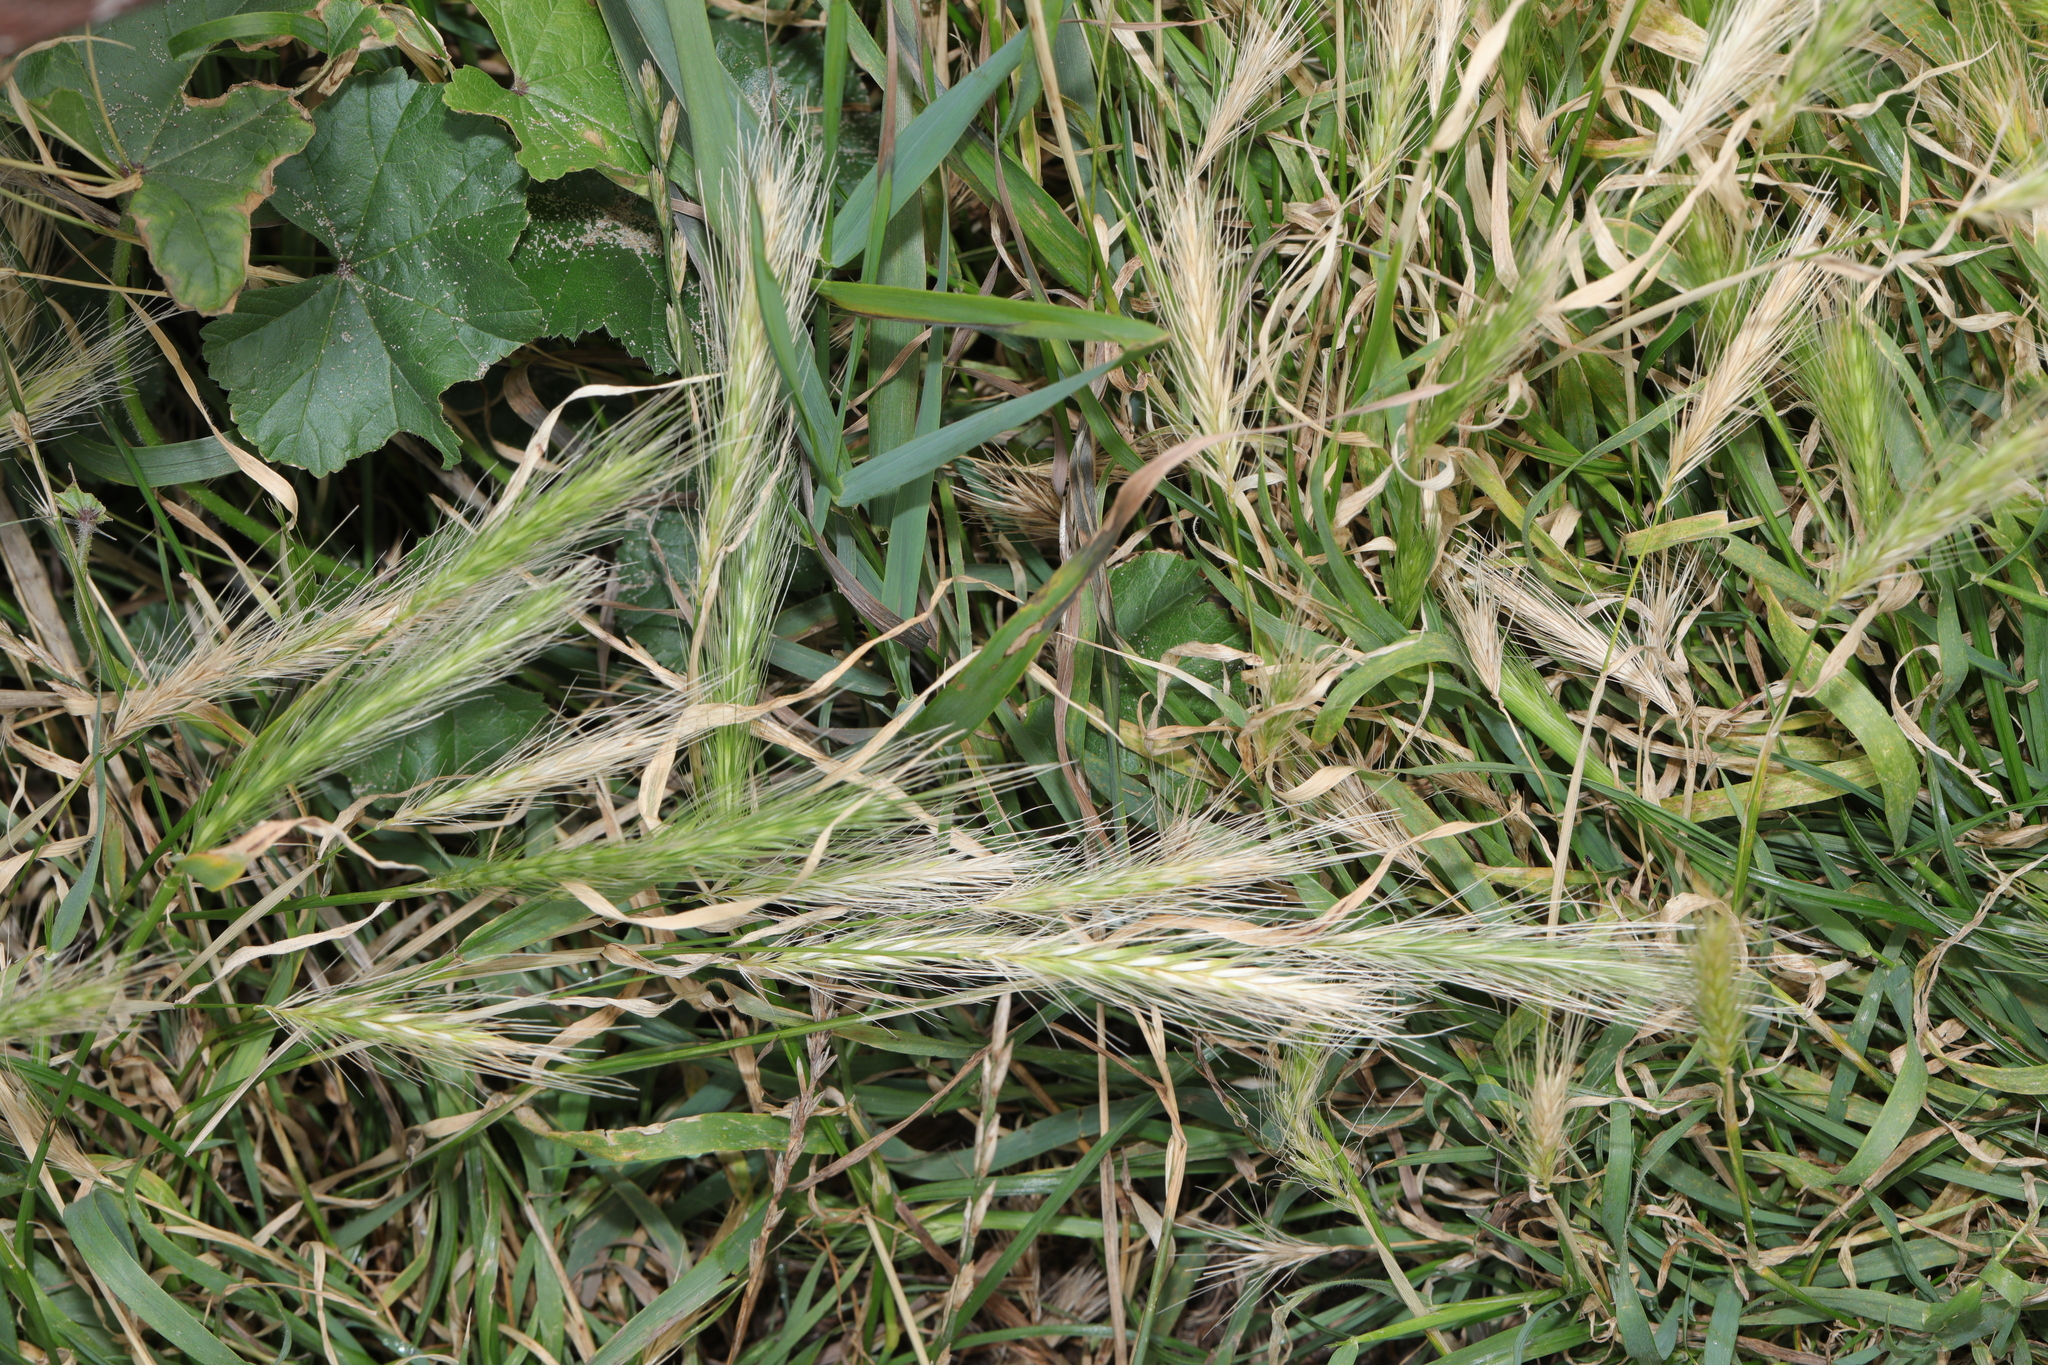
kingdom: Plantae
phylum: Tracheophyta
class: Liliopsida
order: Poales
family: Poaceae
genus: Hordeum
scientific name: Hordeum murinum
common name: Wall barley
